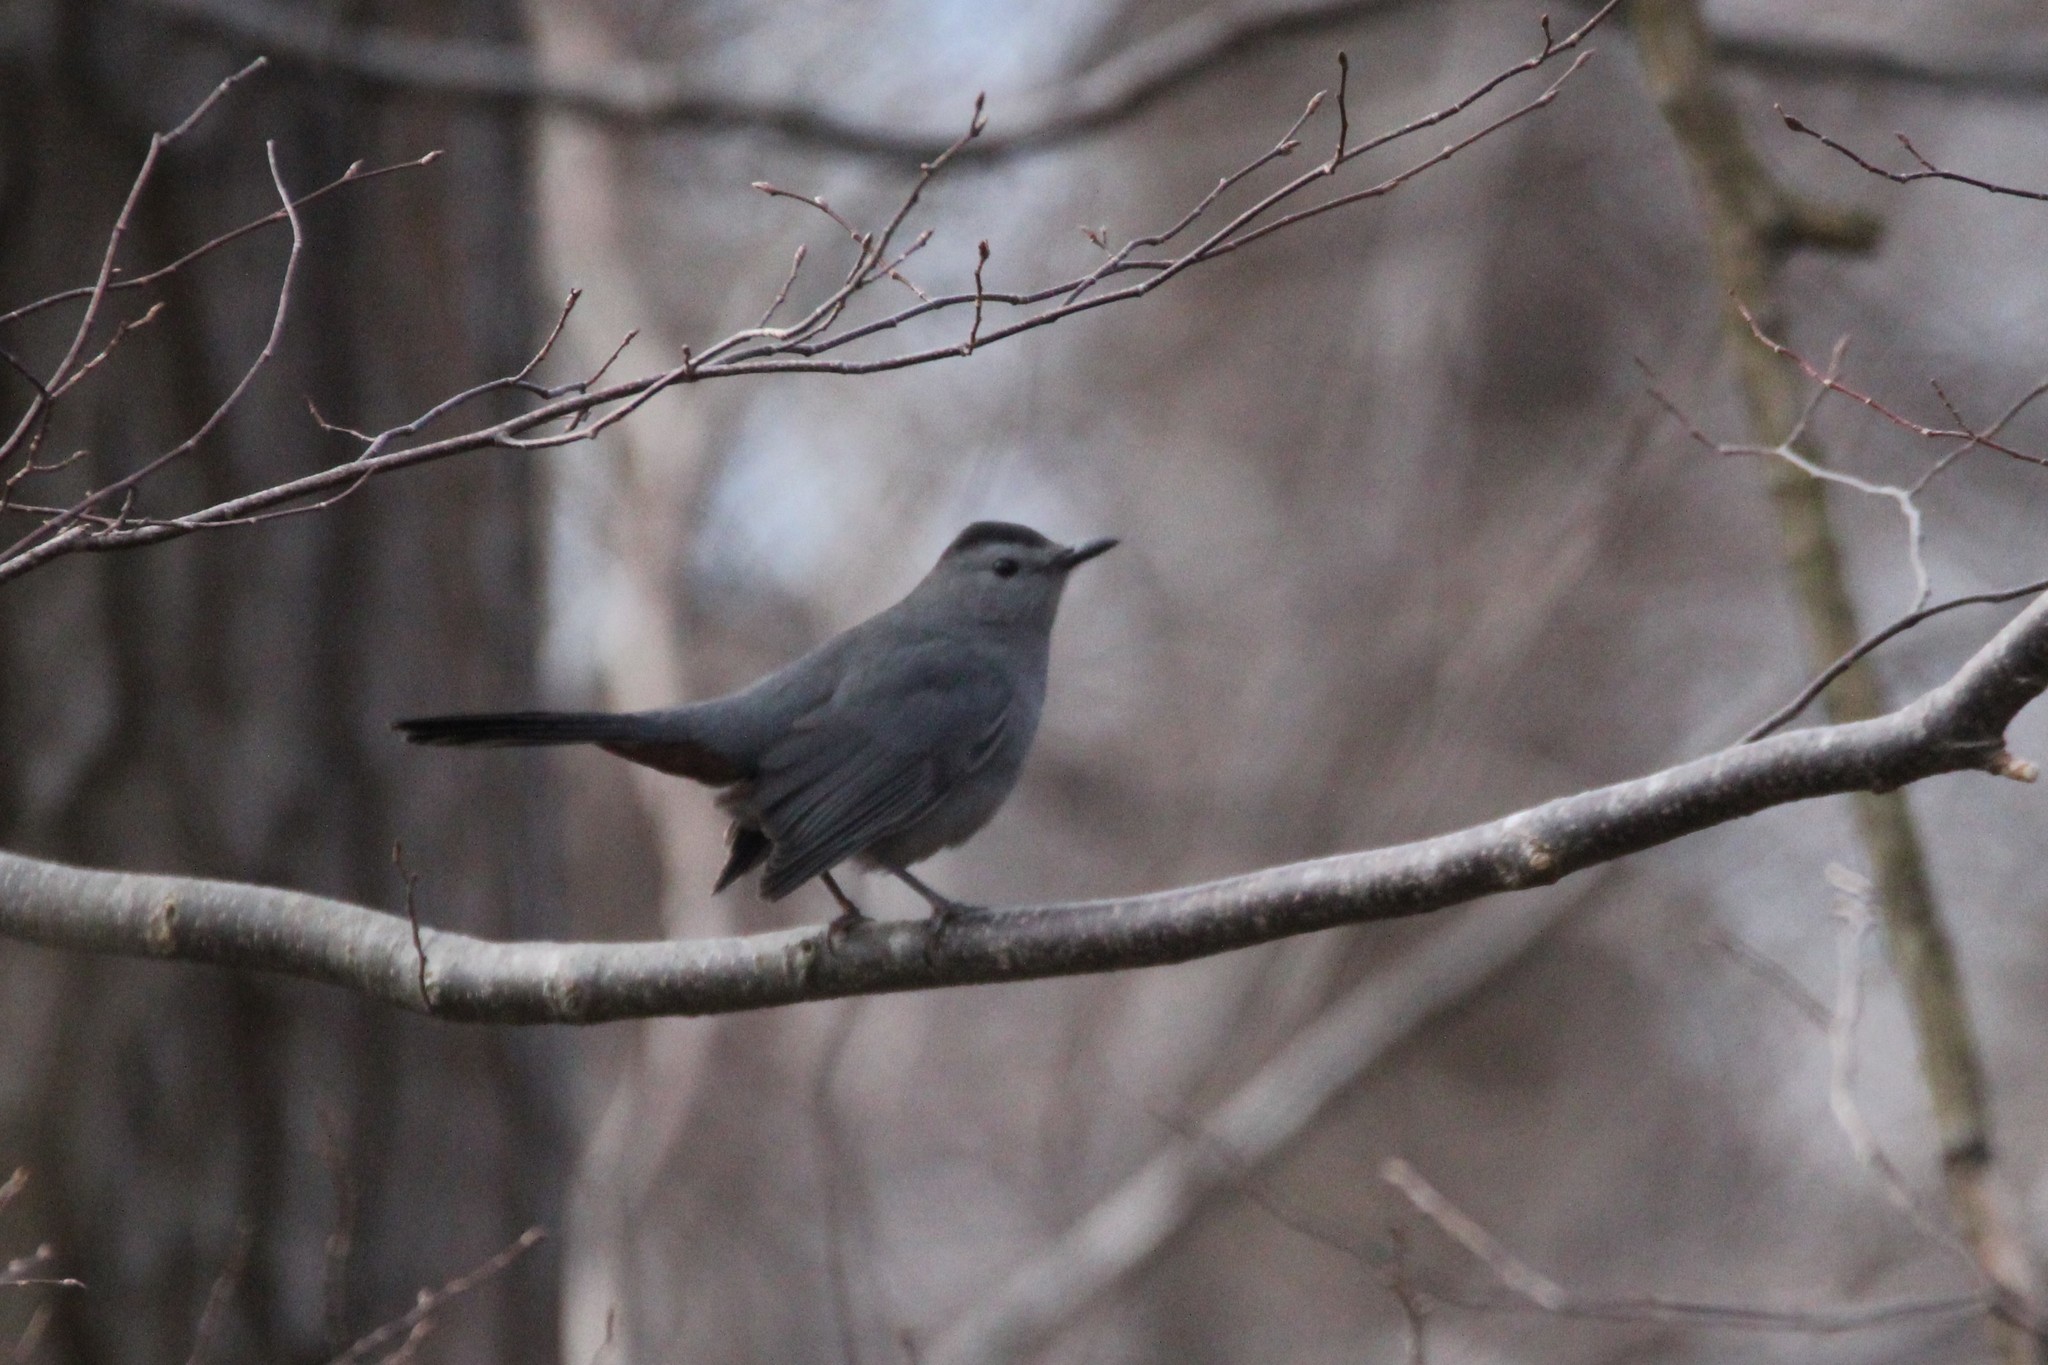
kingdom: Animalia
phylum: Chordata
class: Aves
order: Passeriformes
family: Mimidae
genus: Dumetella
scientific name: Dumetella carolinensis
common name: Gray catbird
